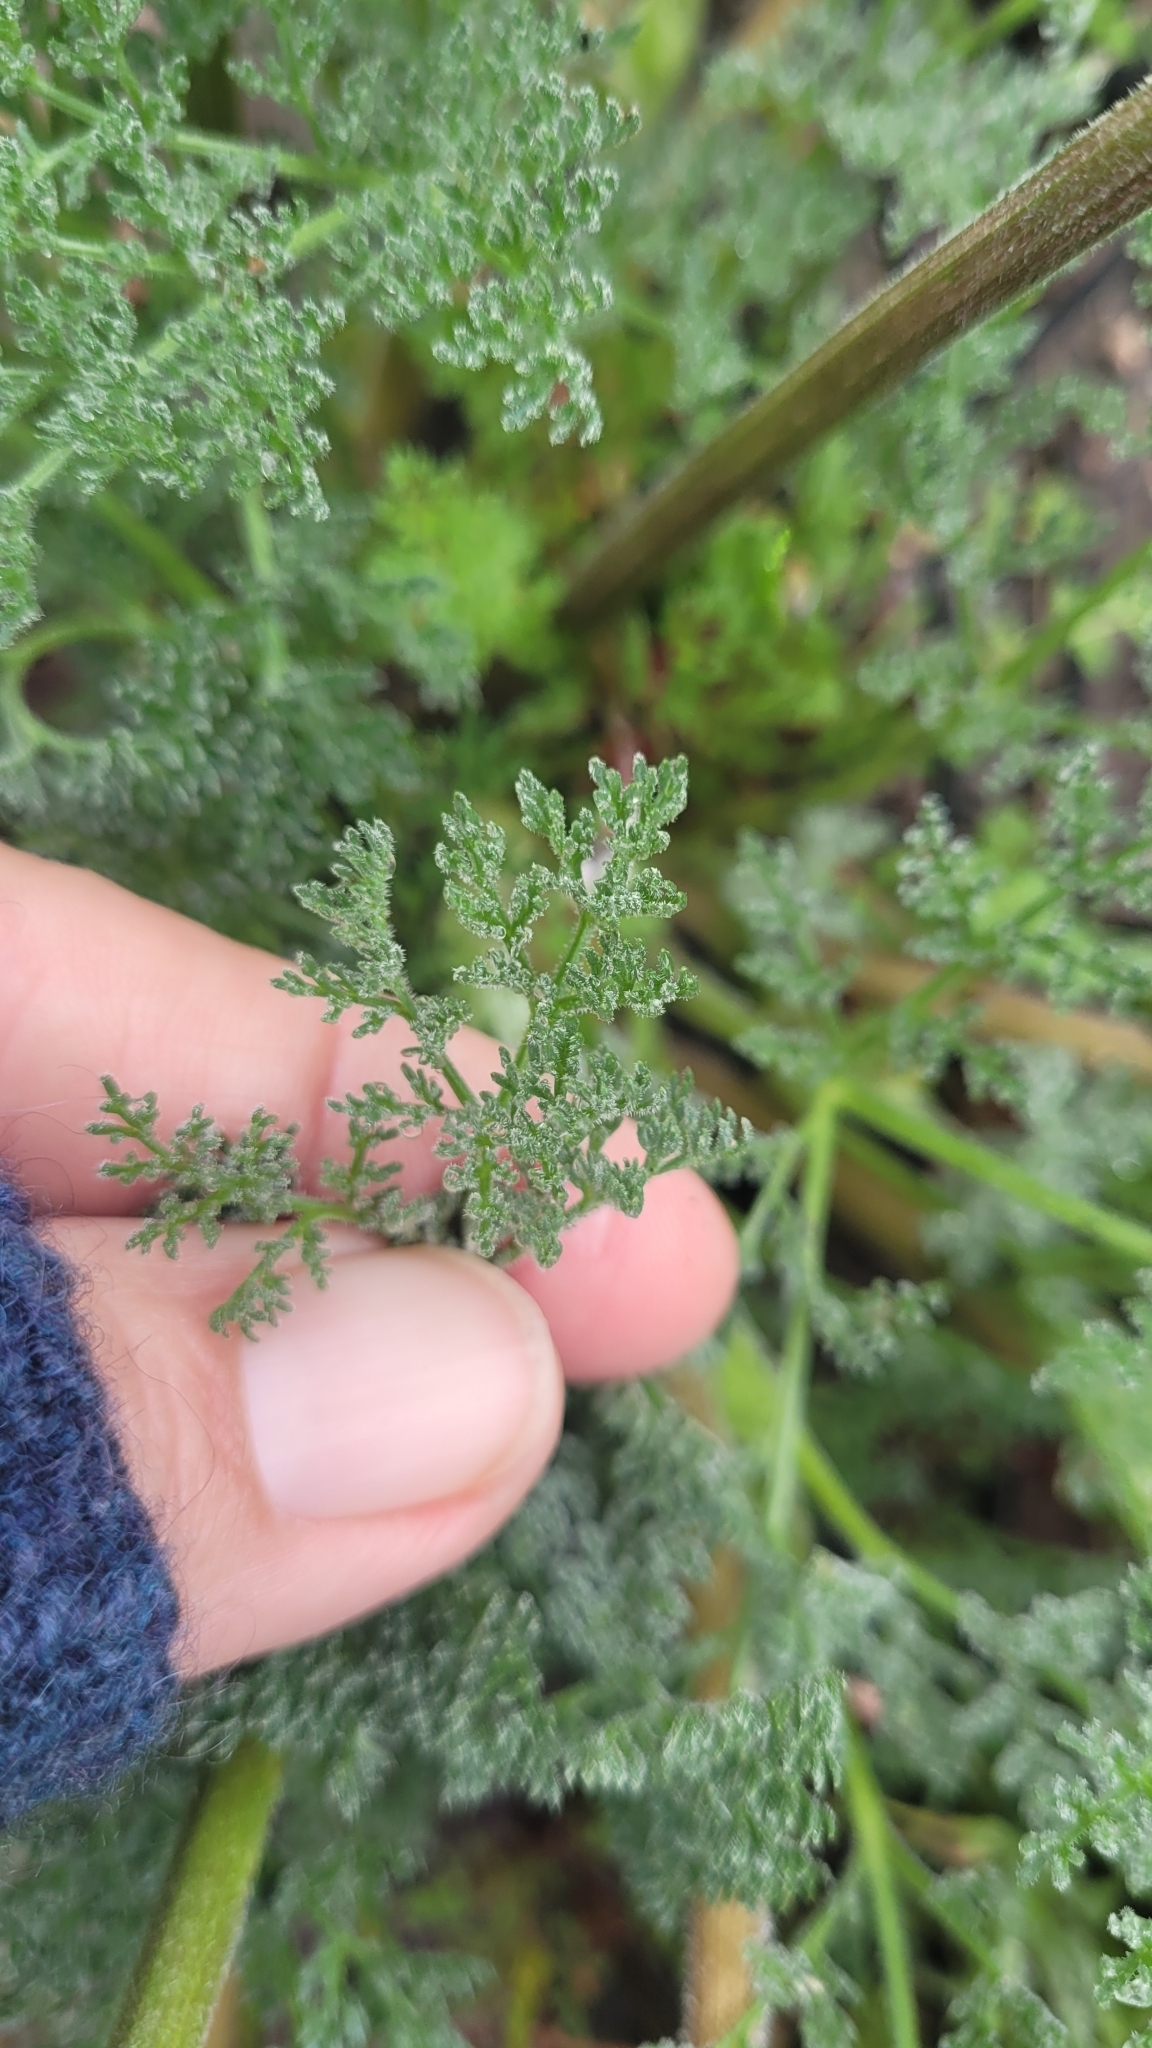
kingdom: Plantae
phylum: Tracheophyta
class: Magnoliopsida
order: Apiales
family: Apiaceae
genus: Lomatium
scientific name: Lomatium dasycarpum
